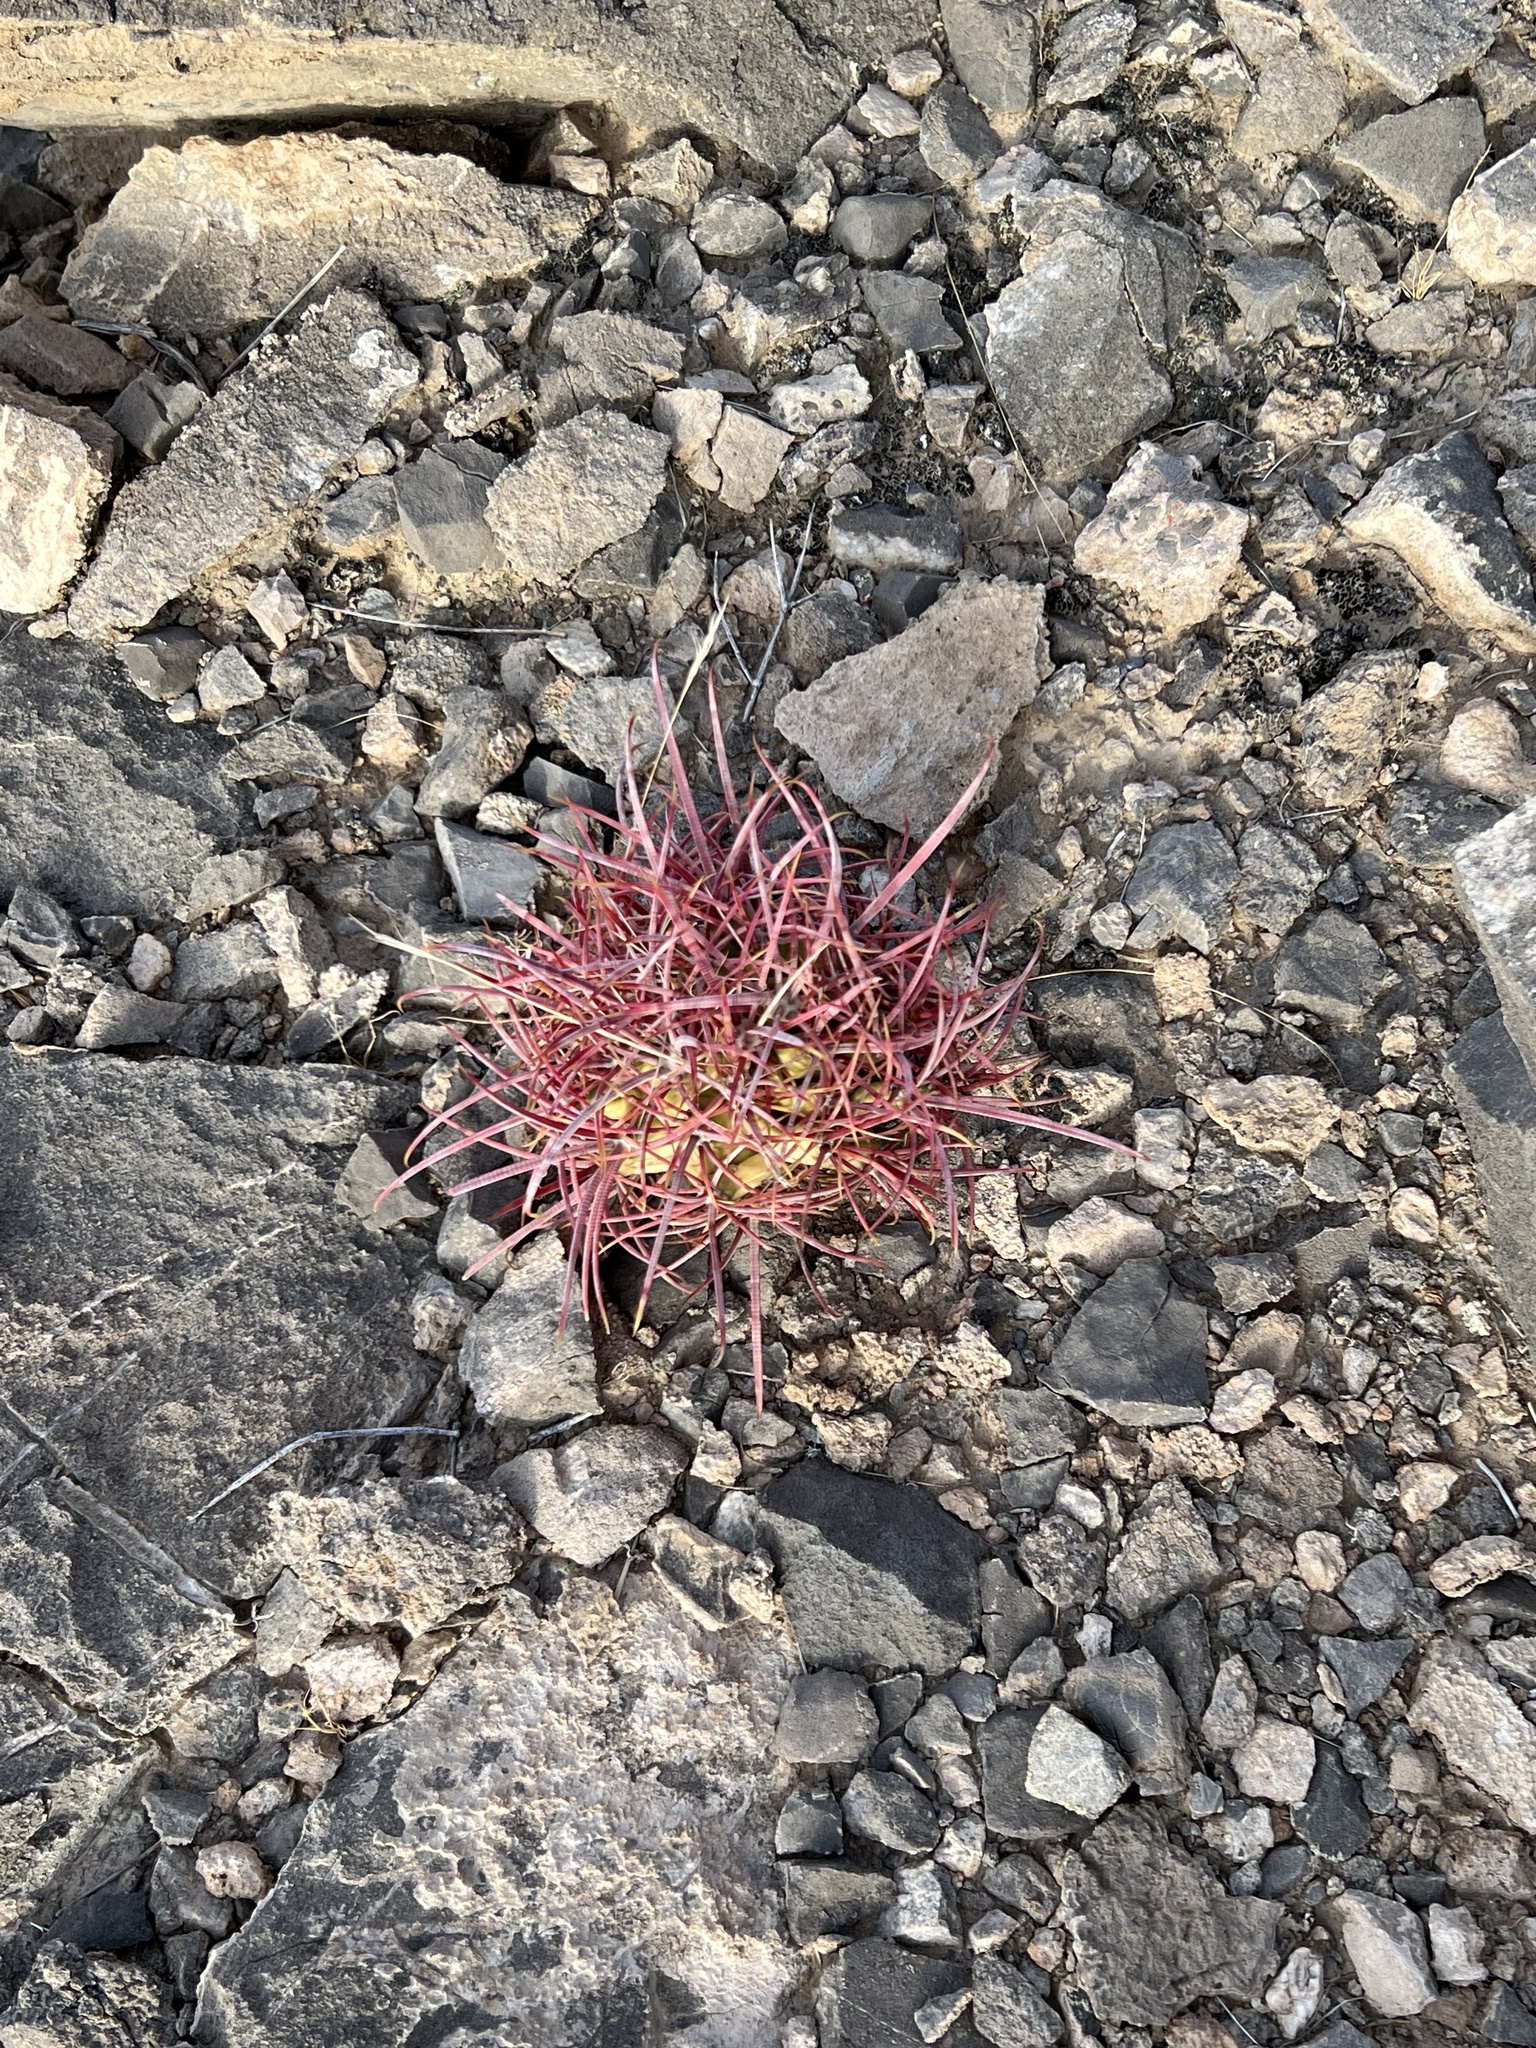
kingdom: Plantae
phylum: Tracheophyta
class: Magnoliopsida
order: Caryophyllales
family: Cactaceae
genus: Ferocactus
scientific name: Ferocactus cylindraceus
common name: California barrel cactus
